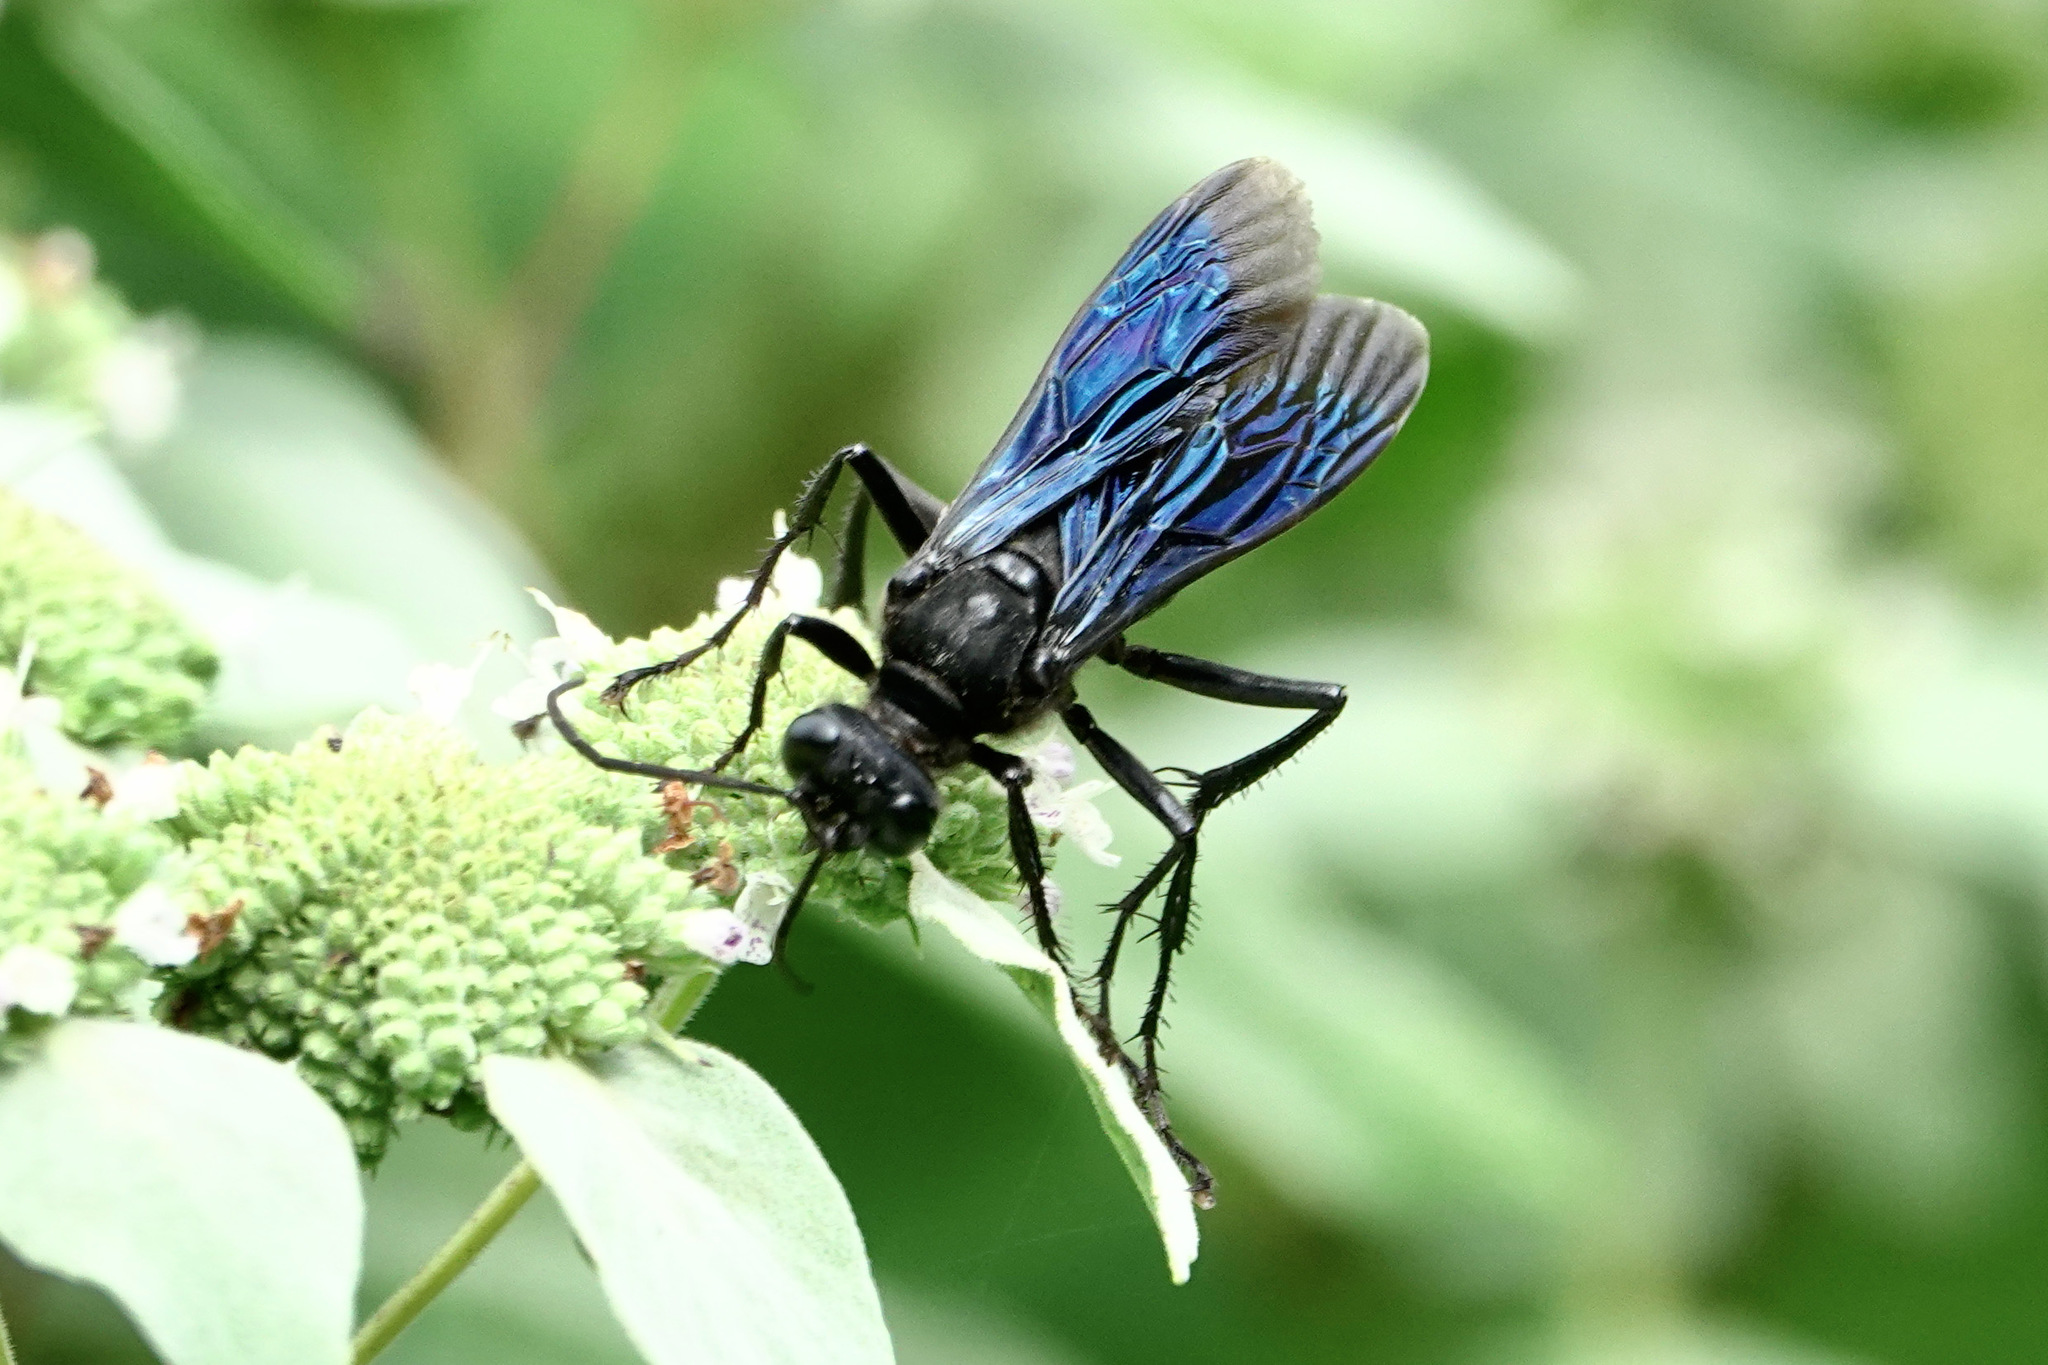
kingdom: Animalia
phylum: Arthropoda
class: Insecta
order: Hymenoptera
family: Sphecidae
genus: Sphex
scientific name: Sphex pensylvanicus
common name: Great black digger wasp
